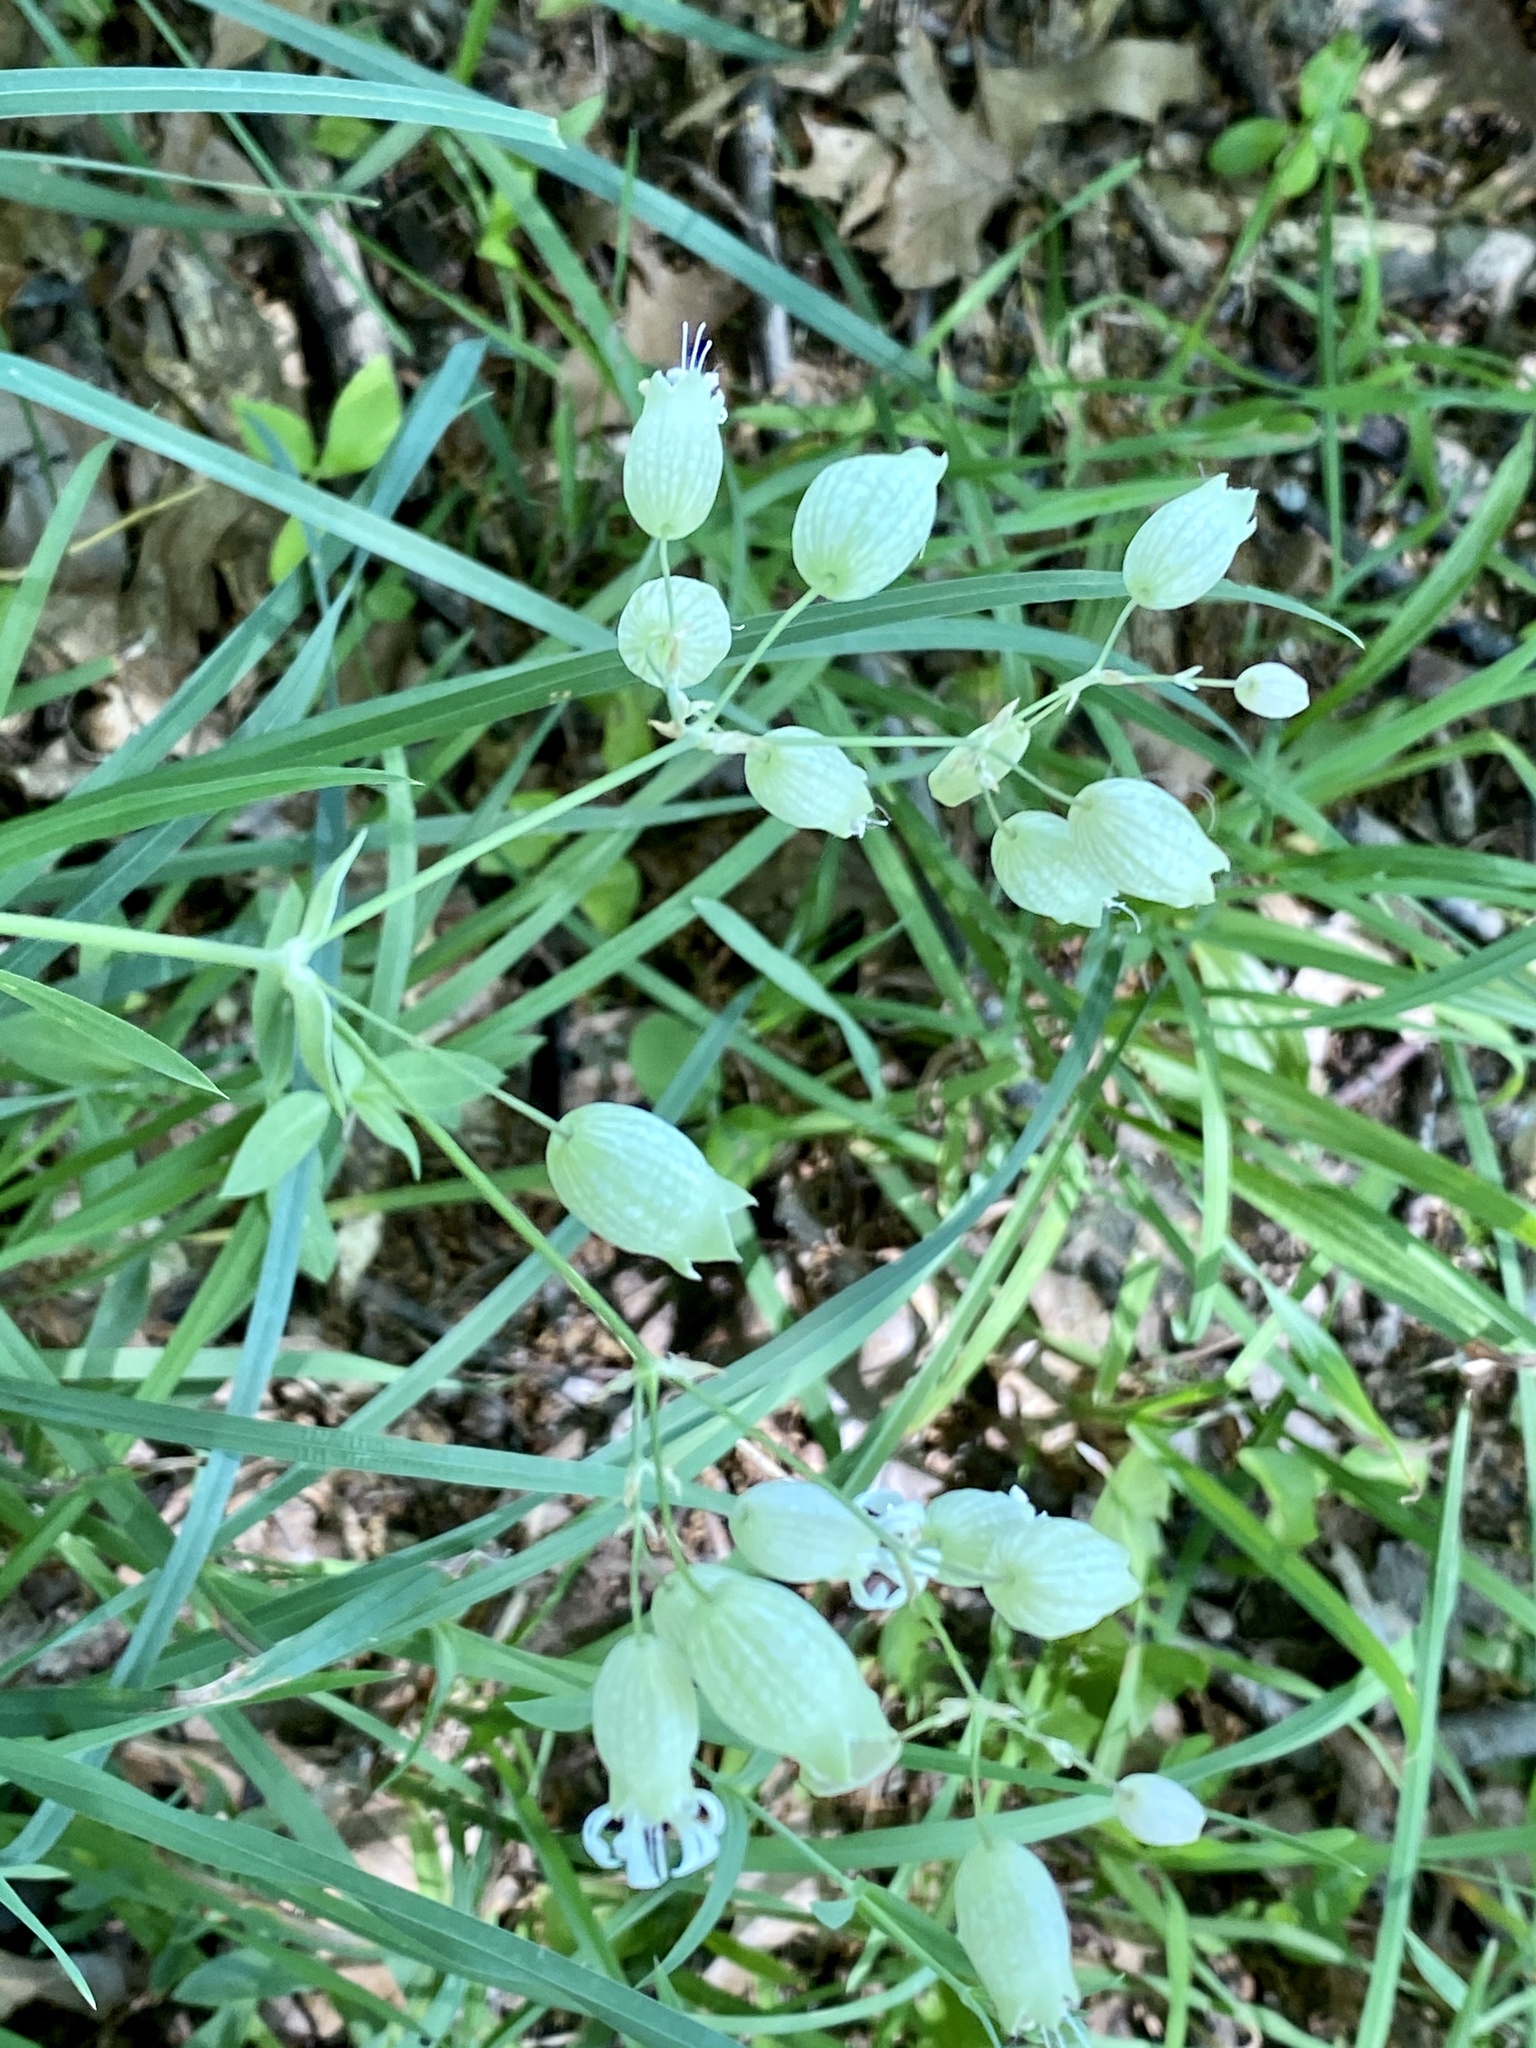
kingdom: Plantae
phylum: Tracheophyta
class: Magnoliopsida
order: Caryophyllales
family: Caryophyllaceae
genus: Silene
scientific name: Silene vulgaris
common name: Bladder campion
